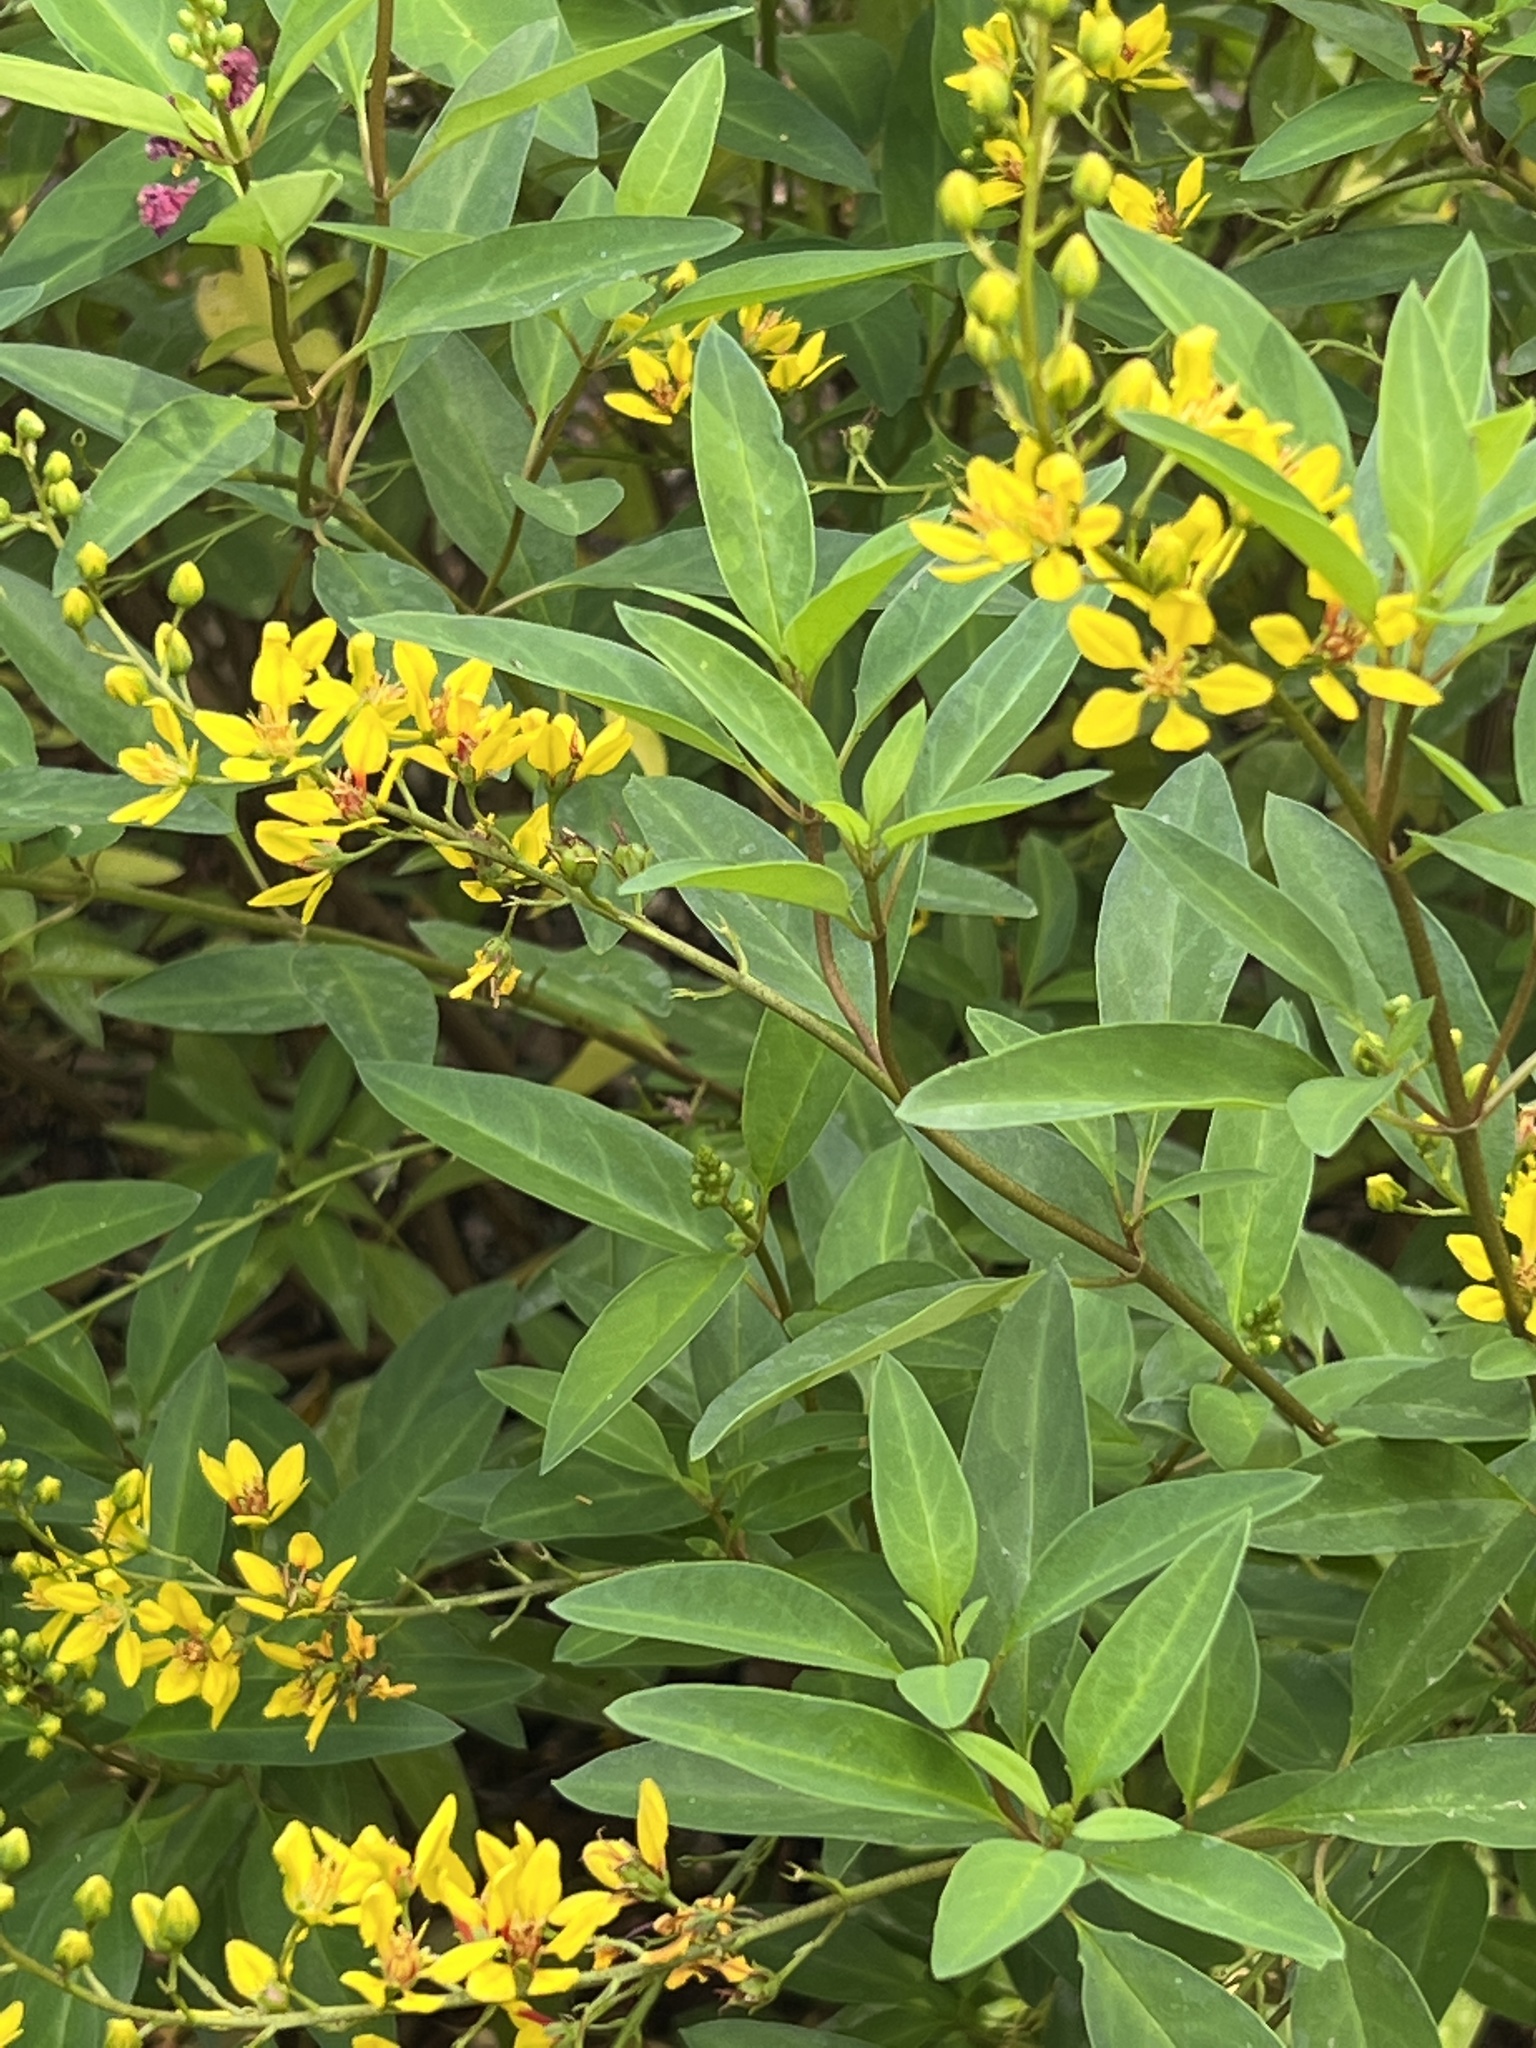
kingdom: Plantae
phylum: Tracheophyta
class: Magnoliopsida
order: Malpighiales
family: Malpighiaceae
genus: Galphimia
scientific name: Galphimia gracilis
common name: Slender goldshower
